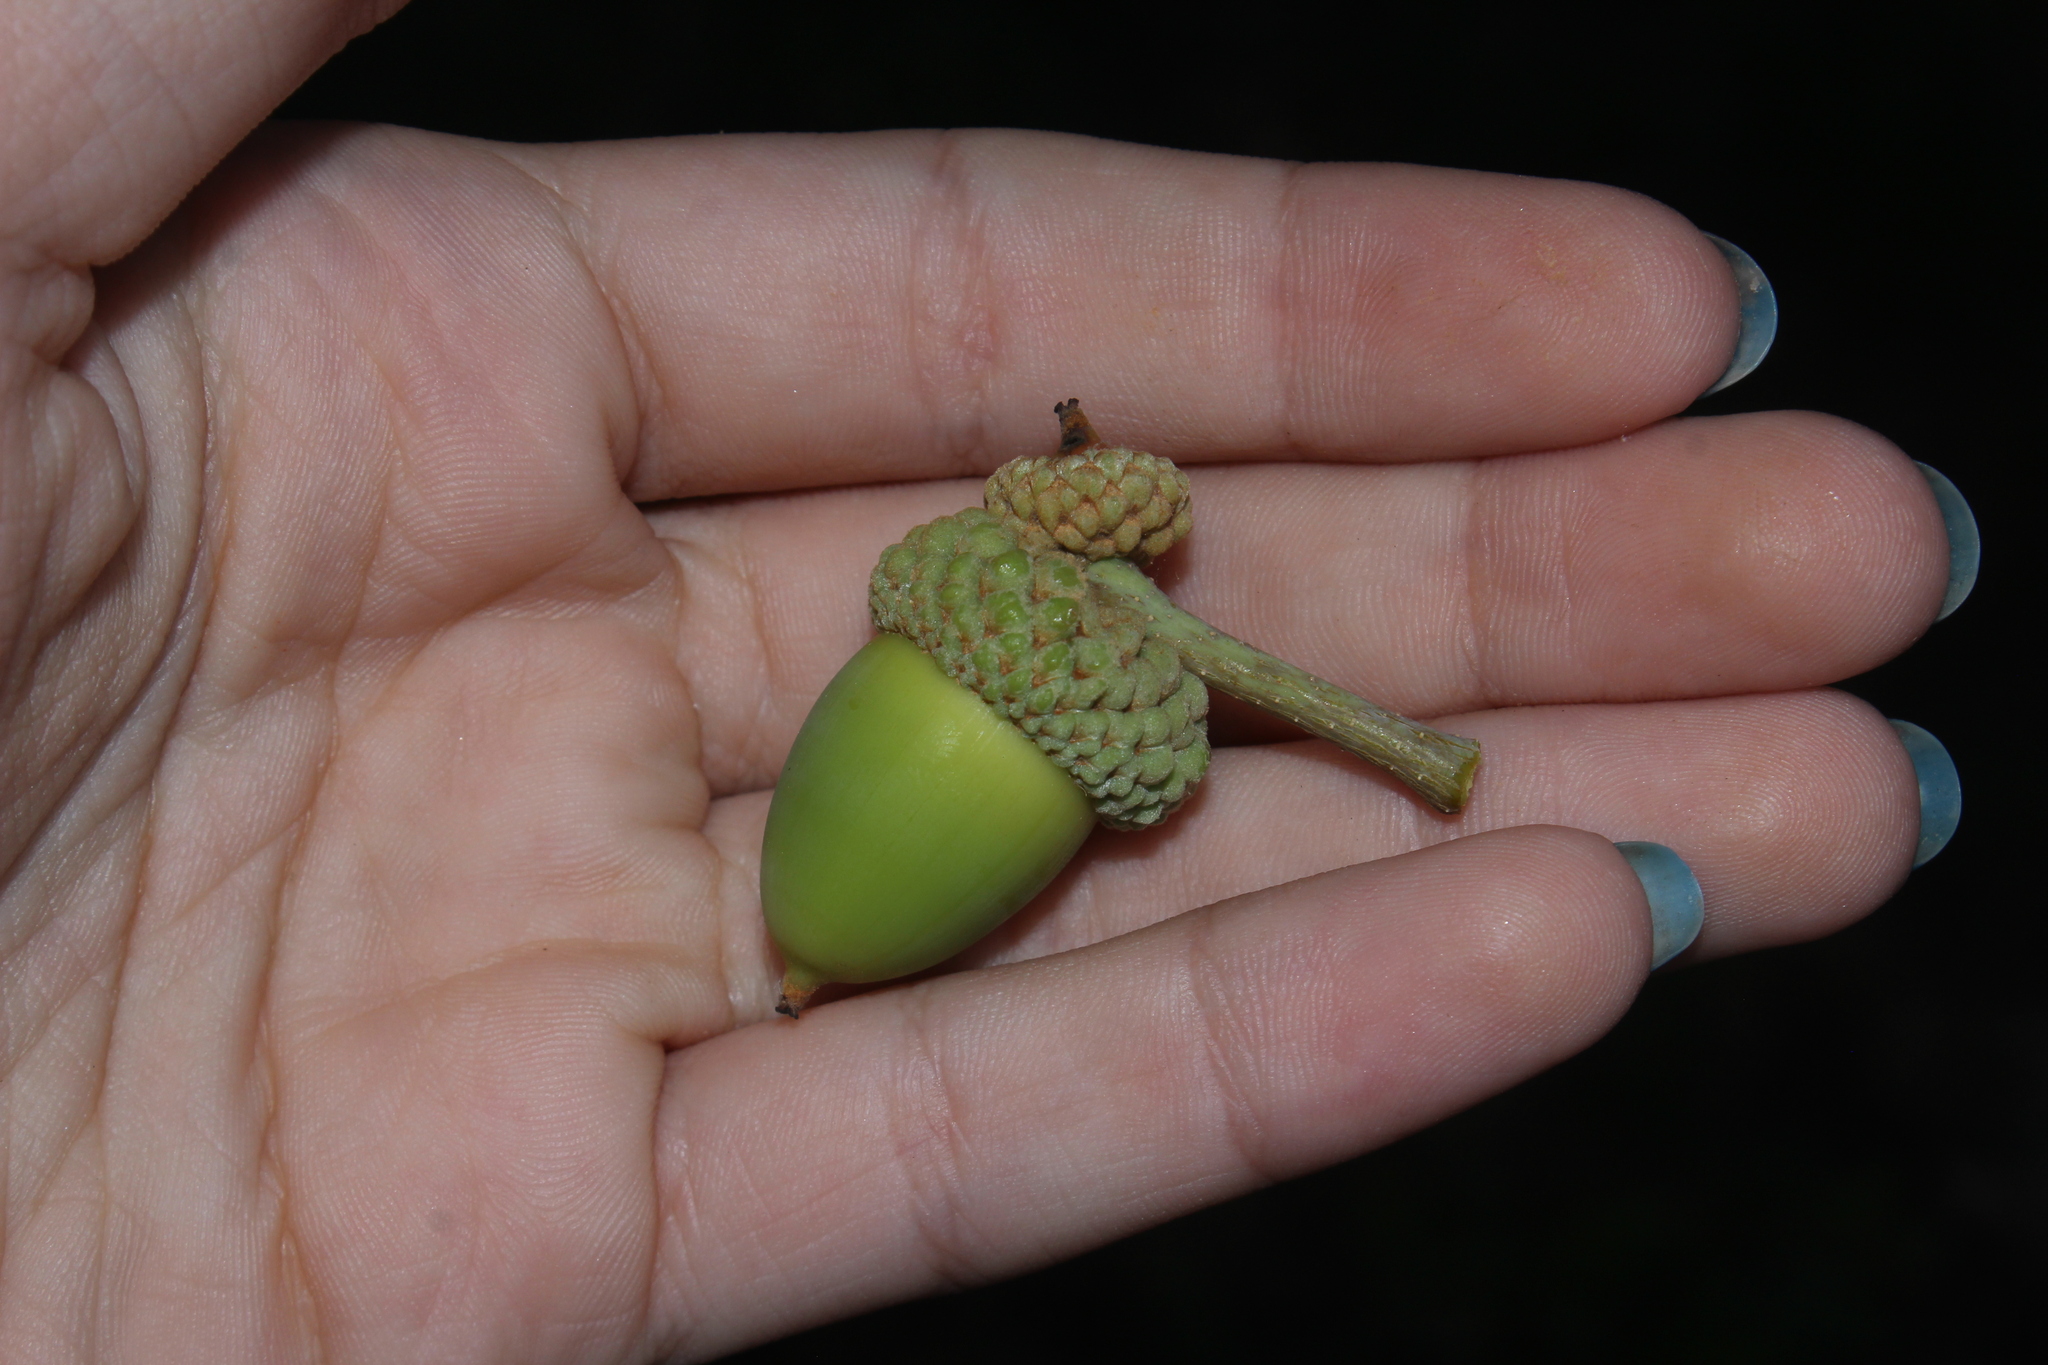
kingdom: Plantae
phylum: Tracheophyta
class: Magnoliopsida
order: Fagales
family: Fagaceae
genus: Quercus
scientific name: Quercus alba
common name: White oak
